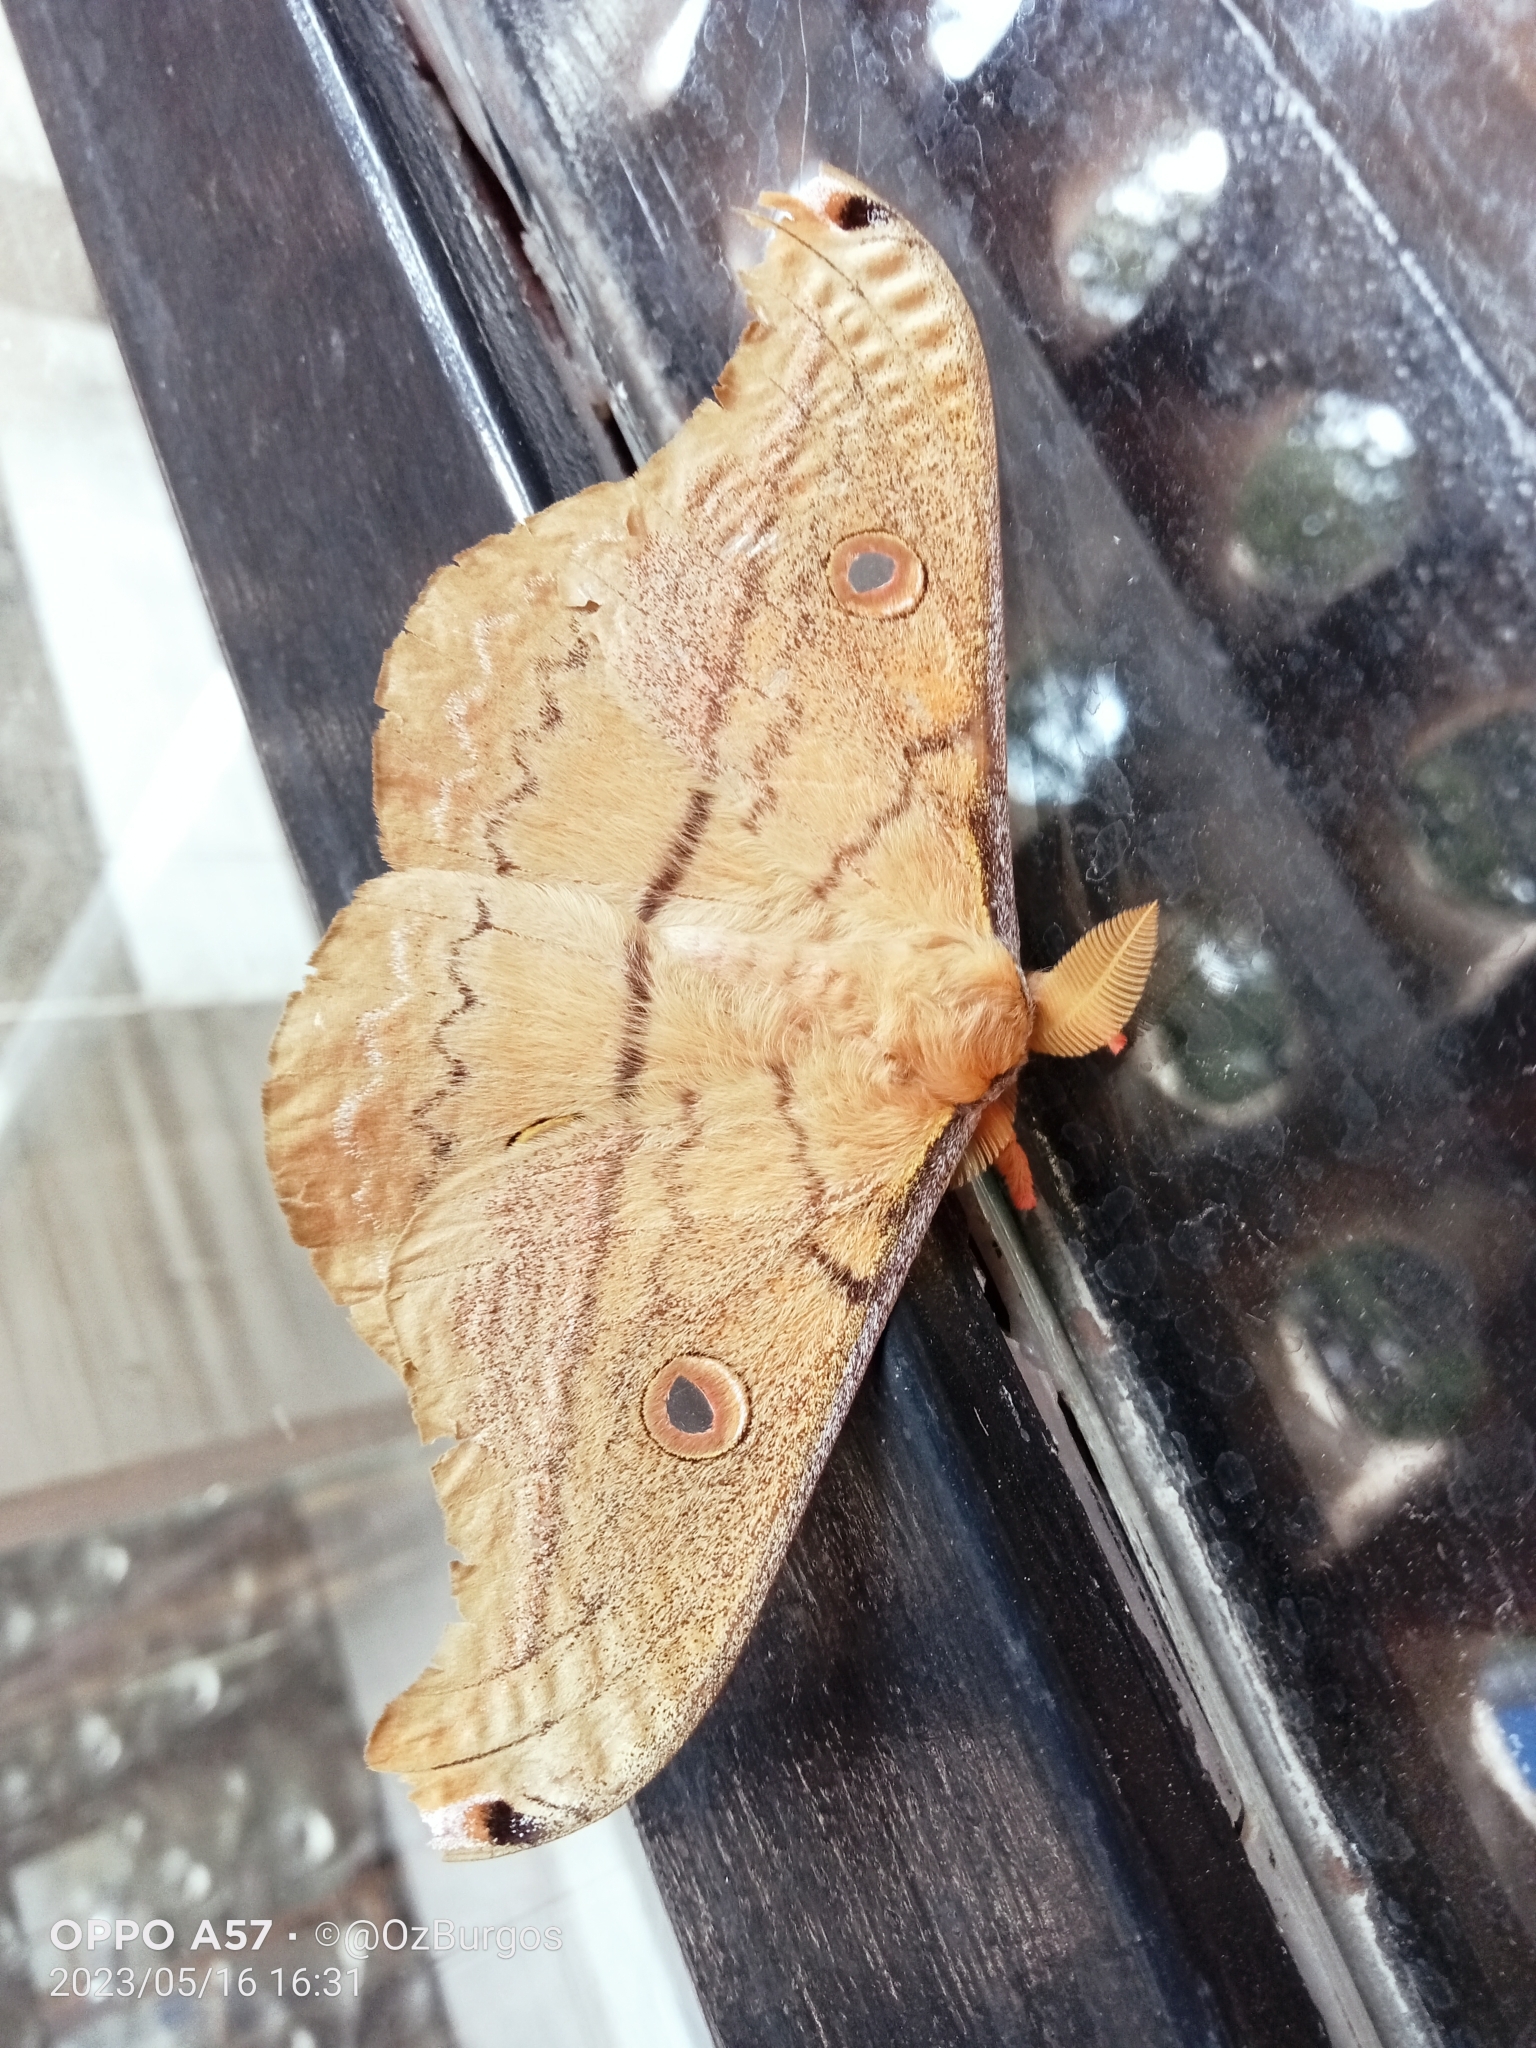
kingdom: Animalia
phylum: Arthropoda
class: Insecta
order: Lepidoptera
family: Saturniidae
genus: Copaxa
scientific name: Copaxa lavendera
